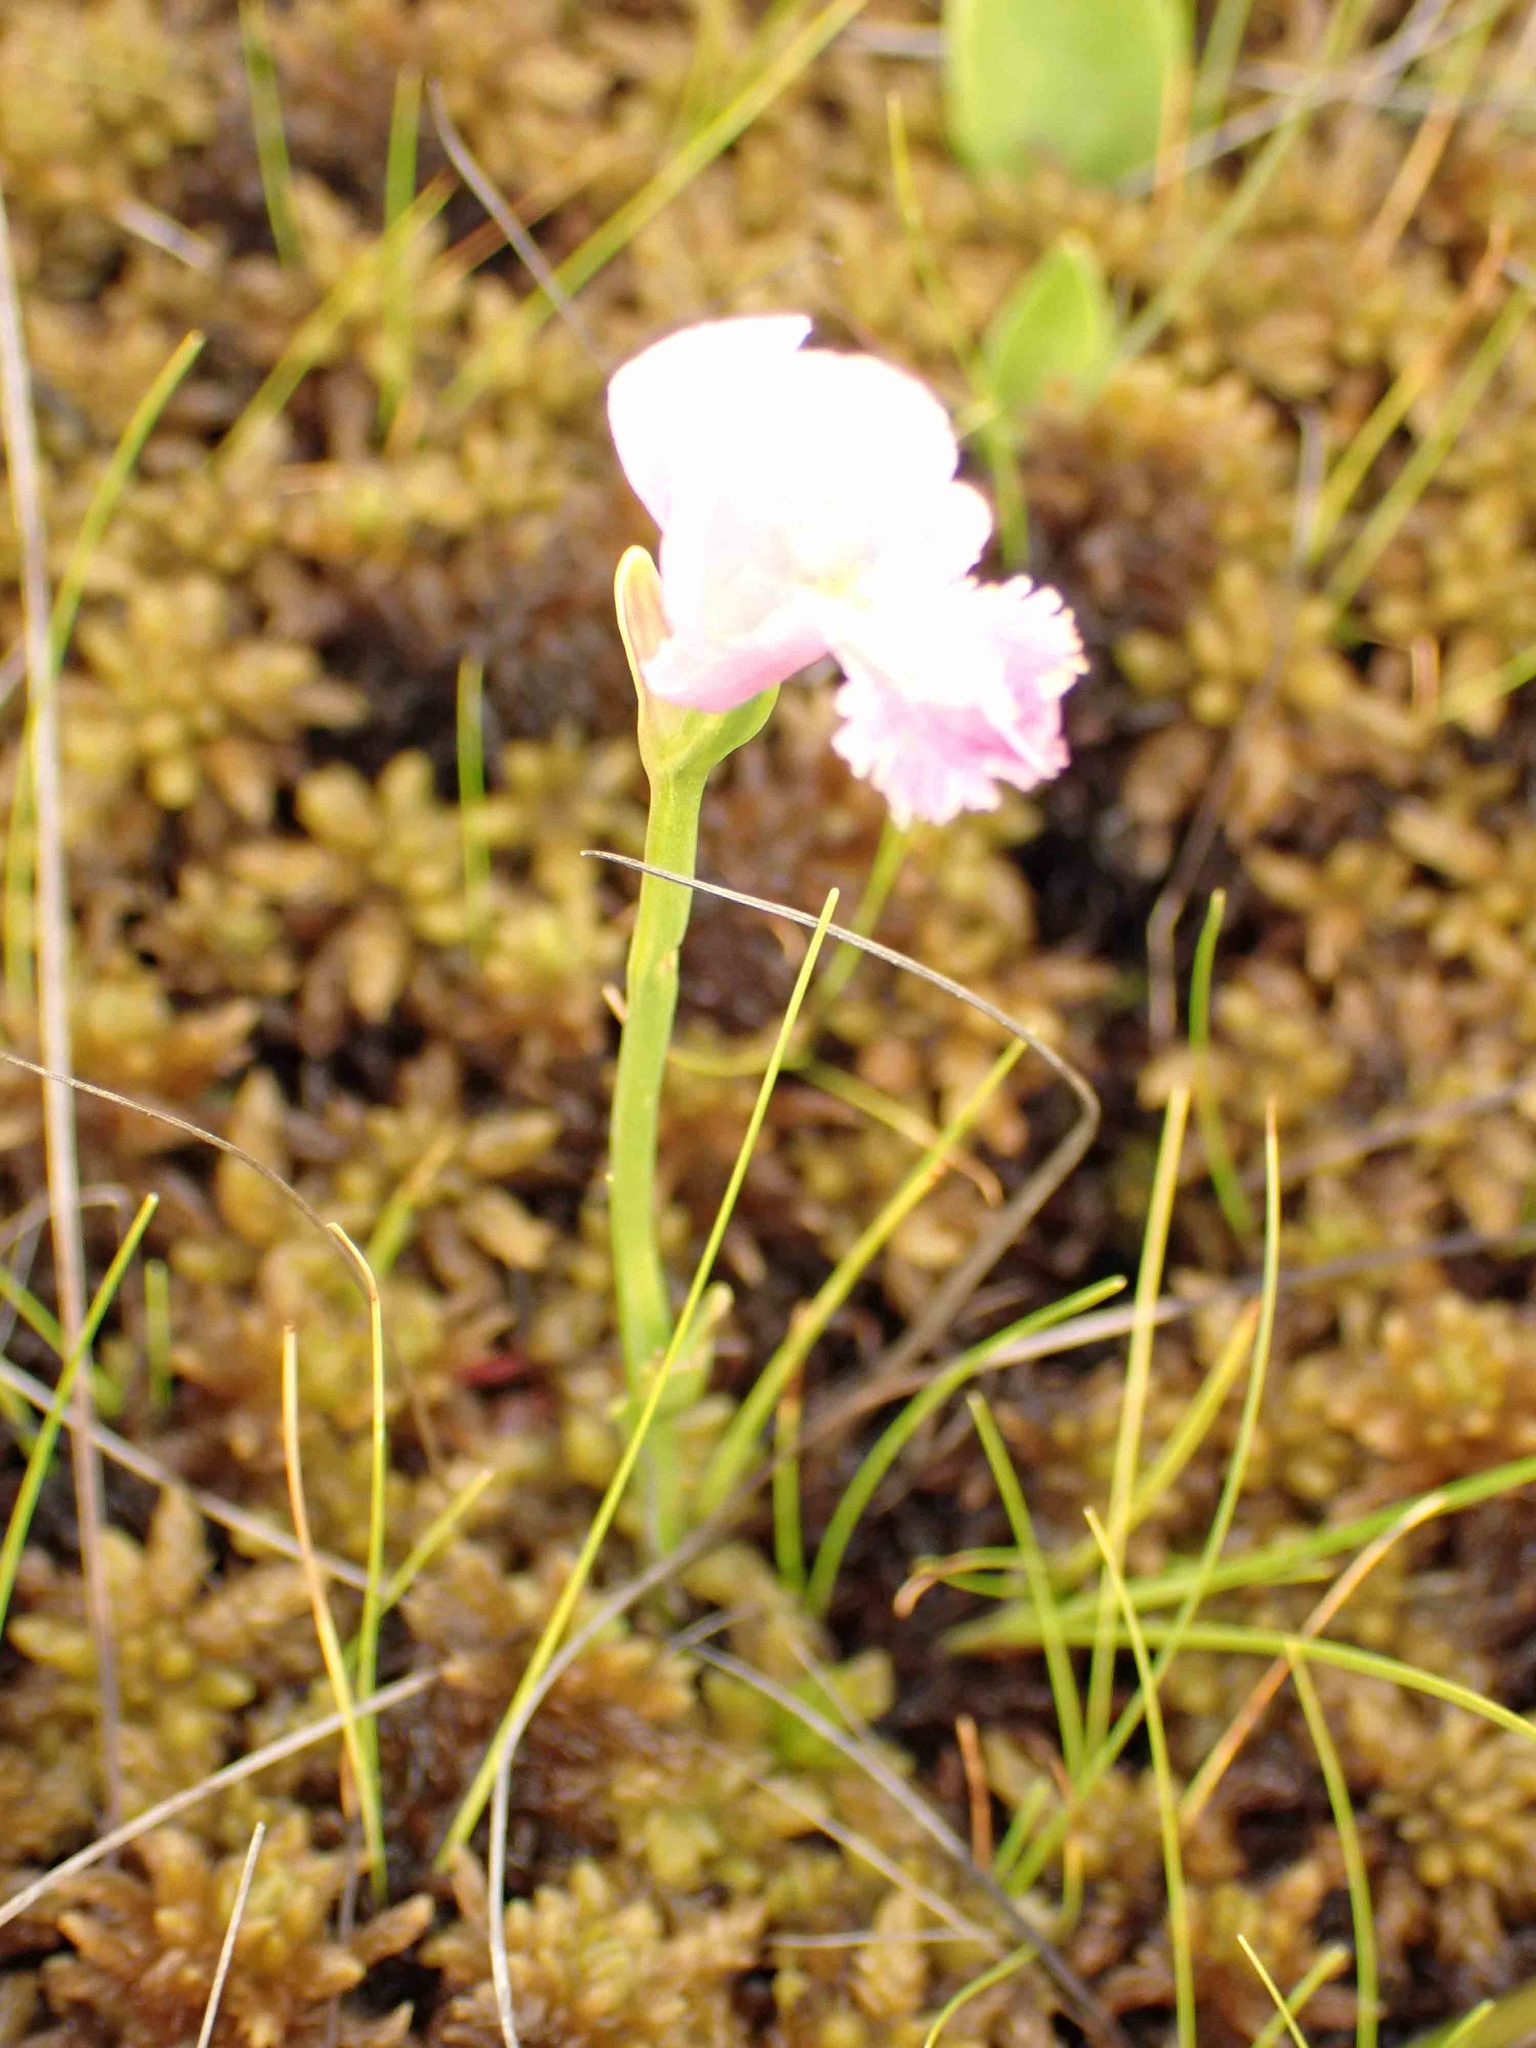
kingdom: Plantae
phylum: Tracheophyta
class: Liliopsida
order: Asparagales
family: Orchidaceae
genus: Pogonia
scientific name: Pogonia ophioglossoides
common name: Rose pogonia
